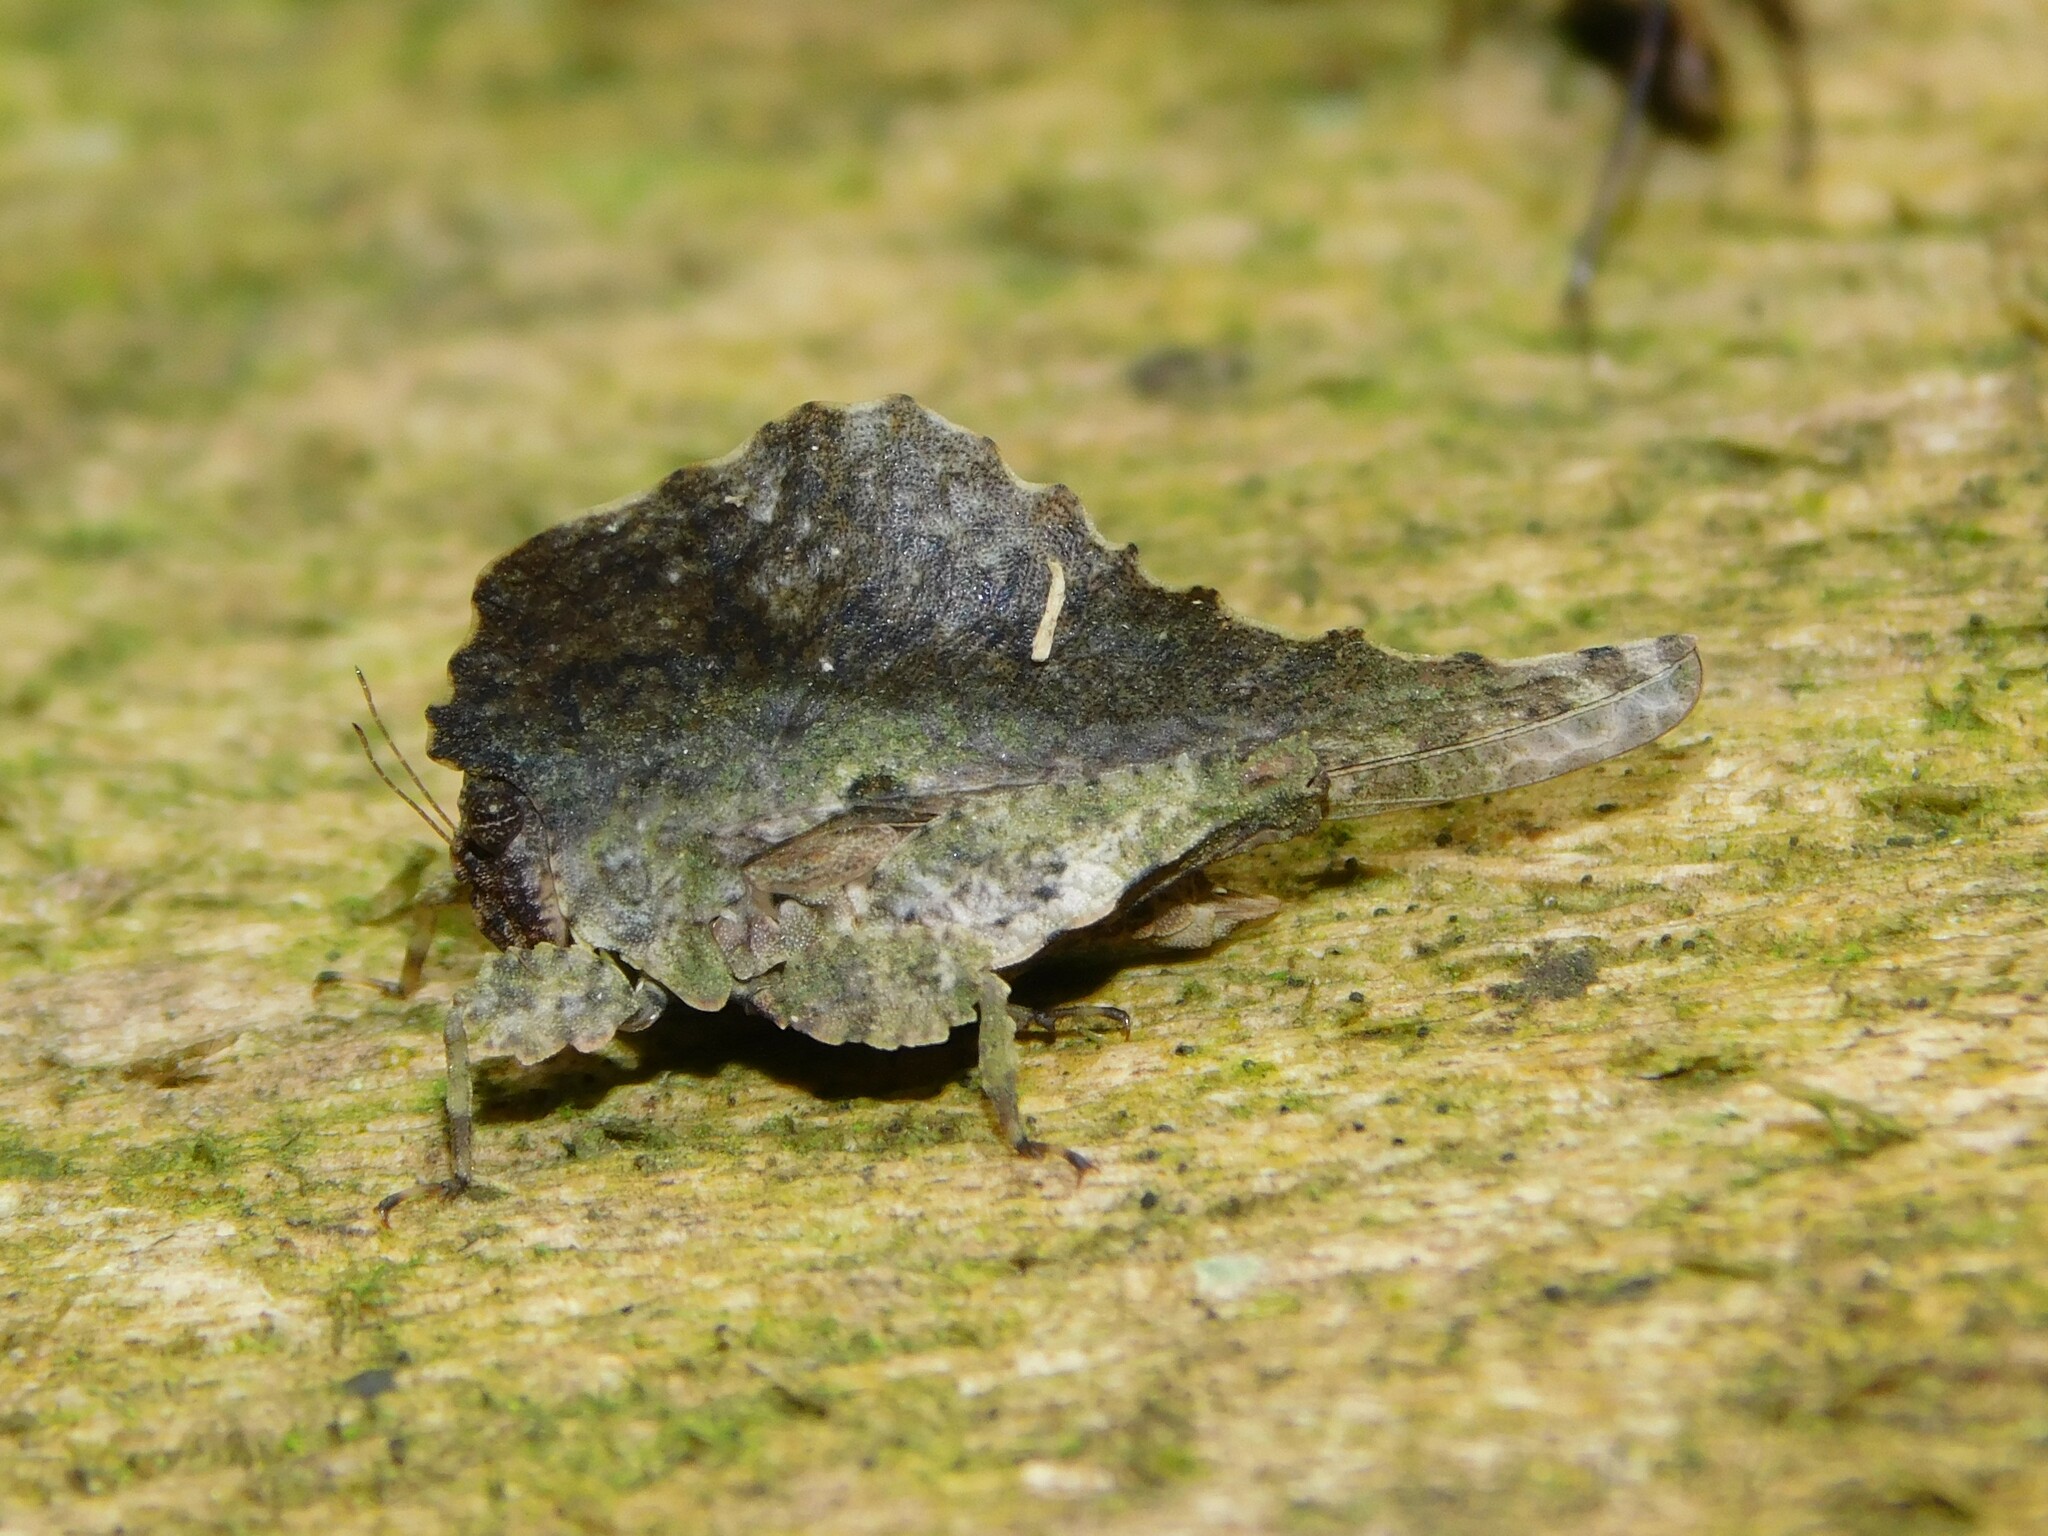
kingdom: Animalia
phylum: Arthropoda
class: Insecta
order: Orthoptera
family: Tetrigidae
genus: Acmophyllum
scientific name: Acmophyllum undulatum
